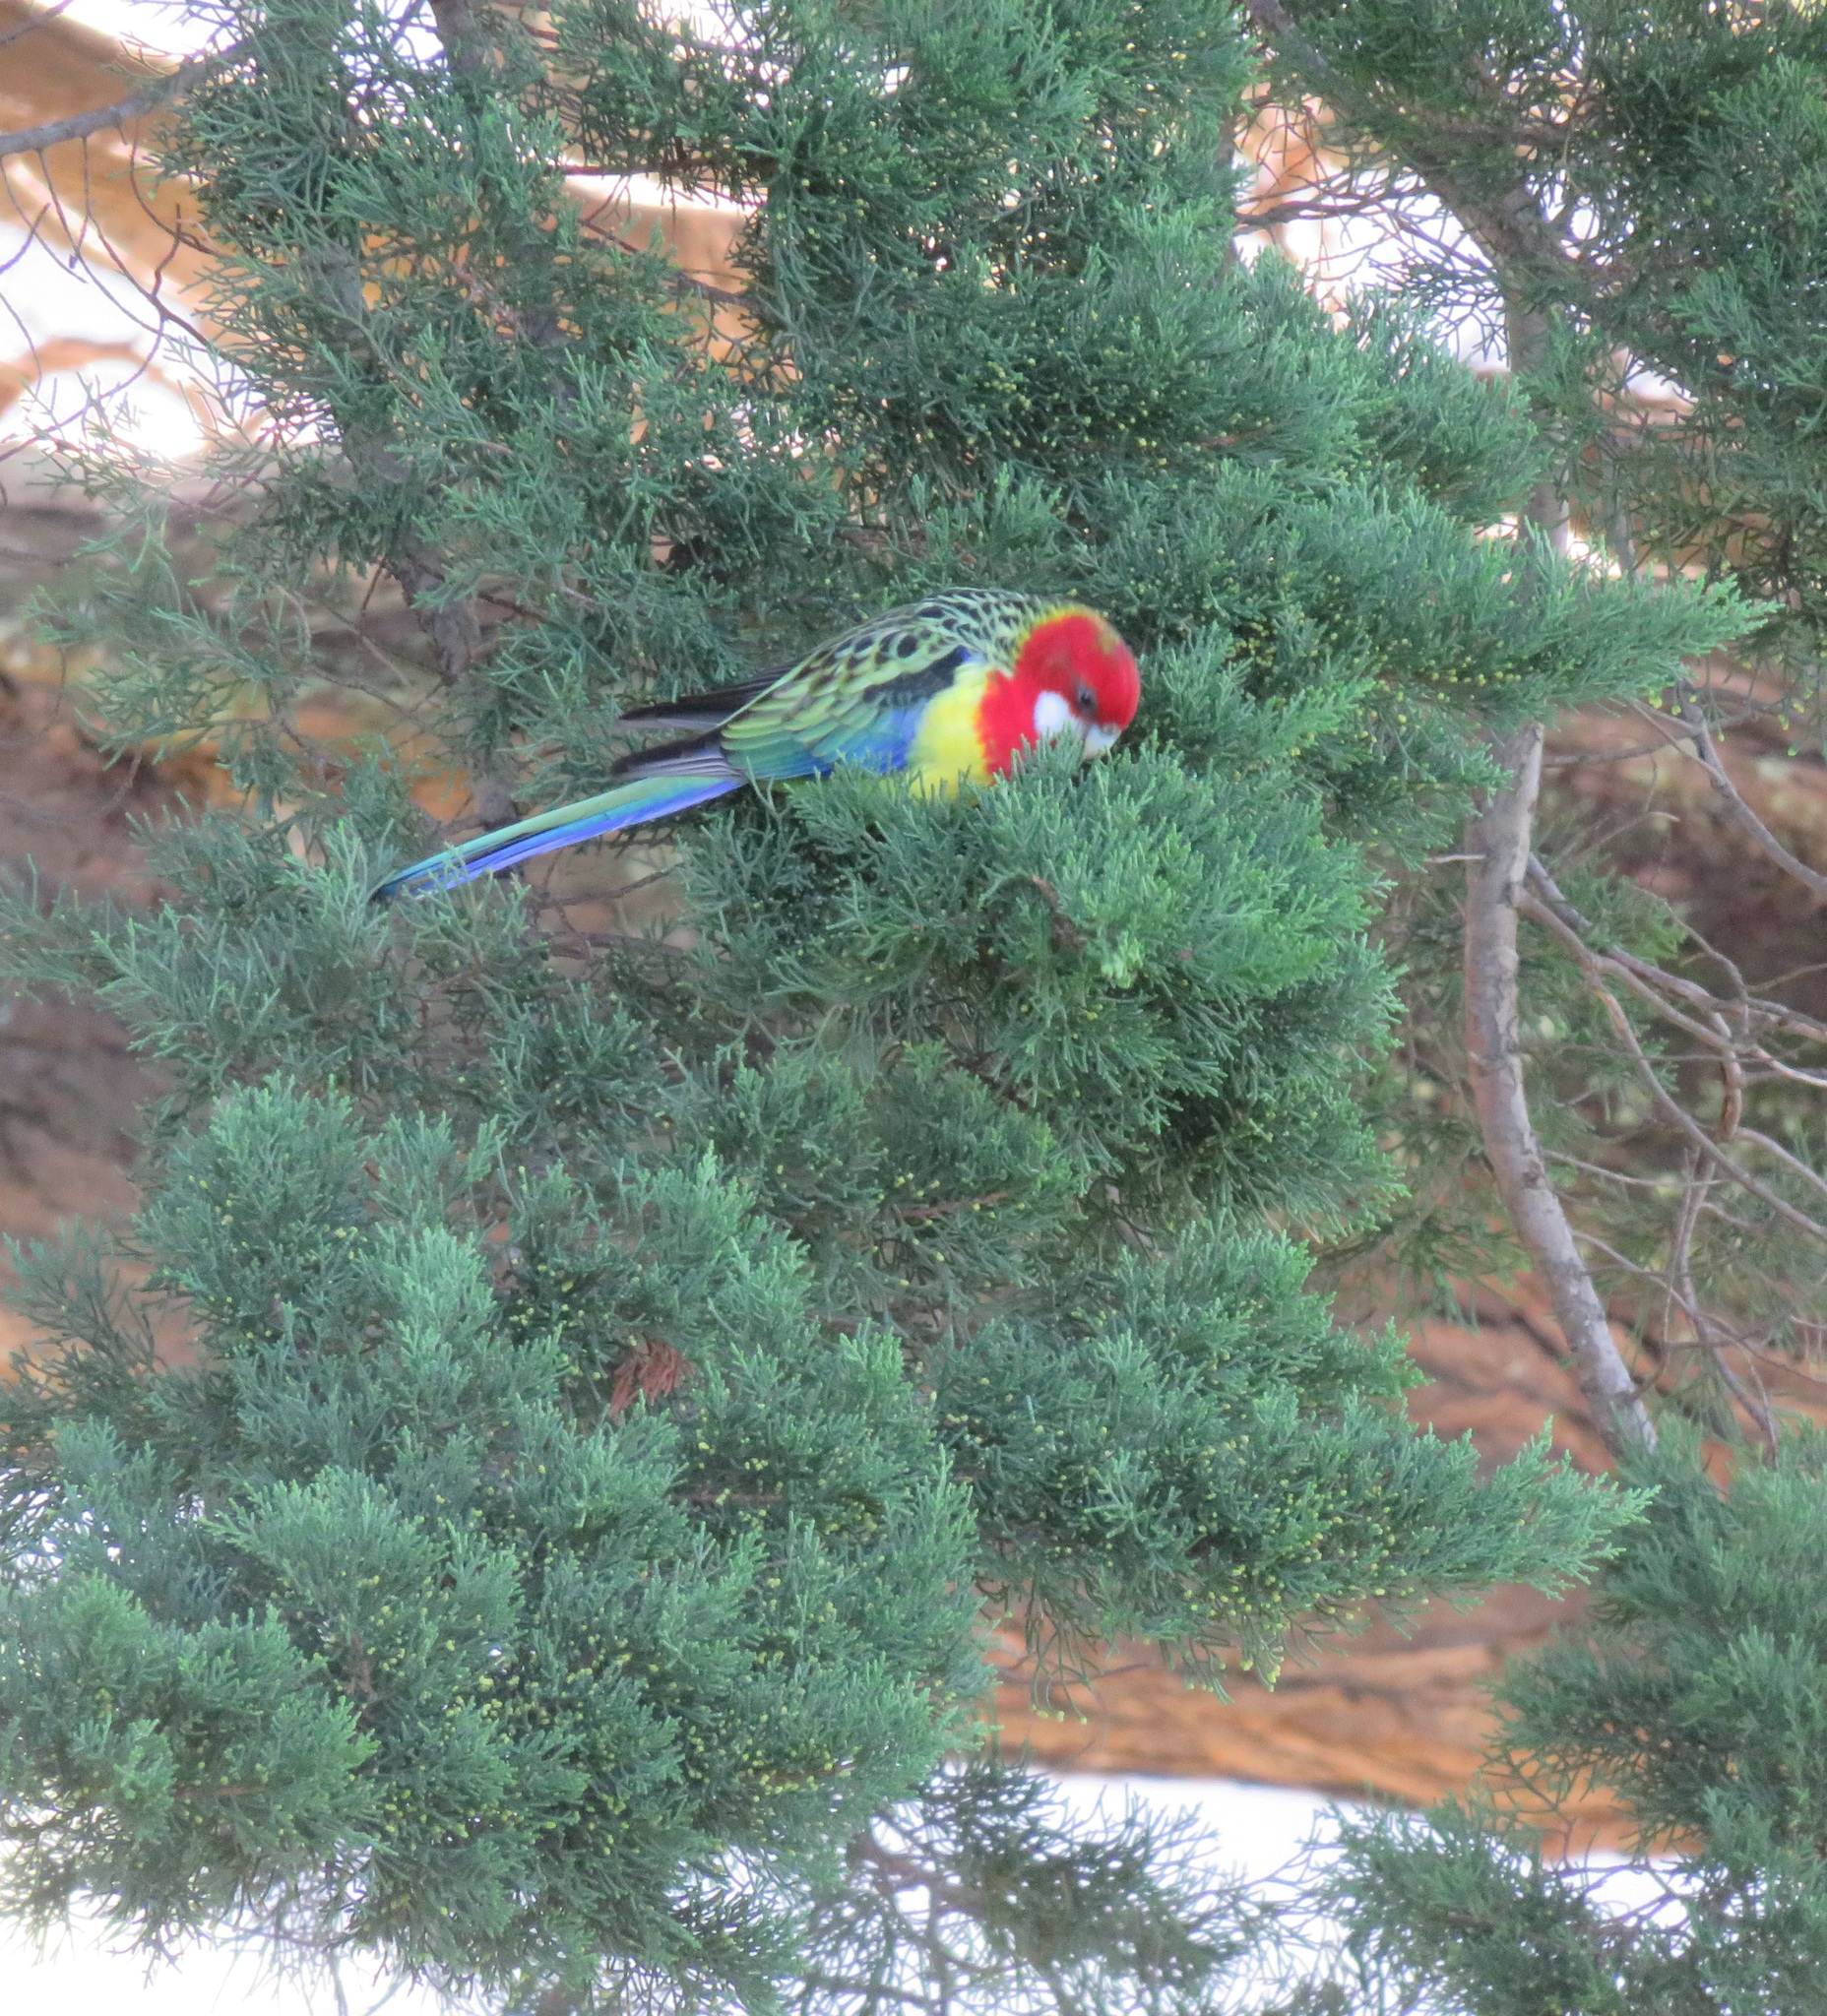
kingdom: Animalia
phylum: Chordata
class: Aves
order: Psittaciformes
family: Psittacidae
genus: Platycercus
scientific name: Platycercus eximius
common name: Eastern rosella
